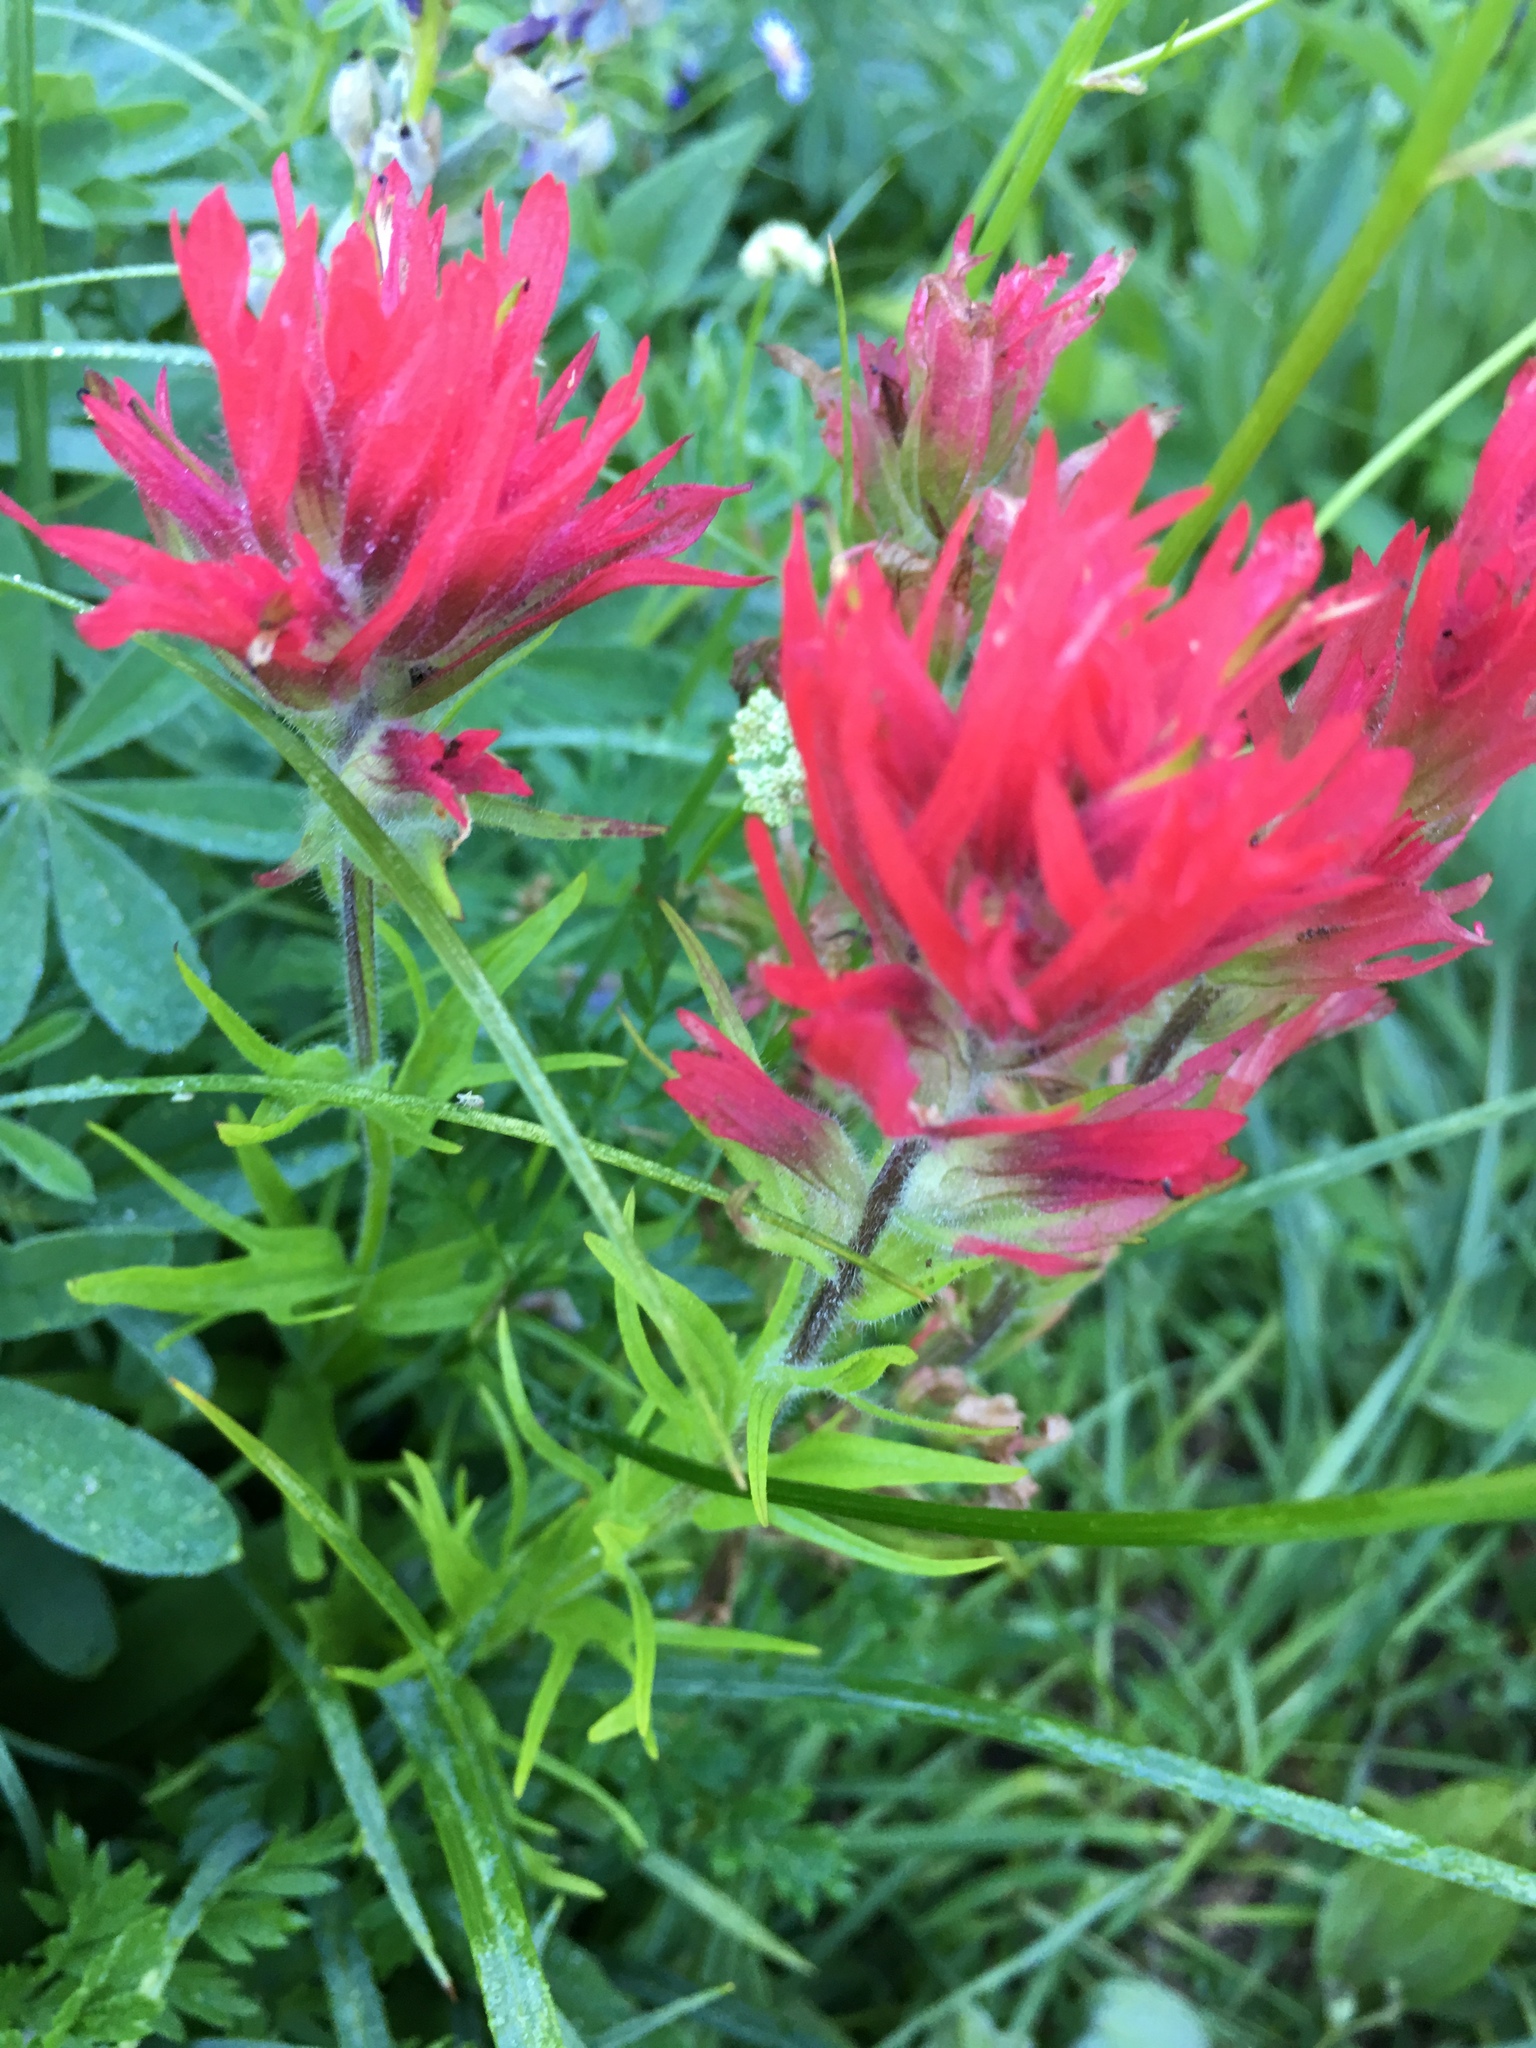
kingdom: Plantae
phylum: Tracheophyta
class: Magnoliopsida
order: Lamiales
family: Orobanchaceae
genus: Castilleja
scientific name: Castilleja parviflora
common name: Mountain paintbrush
